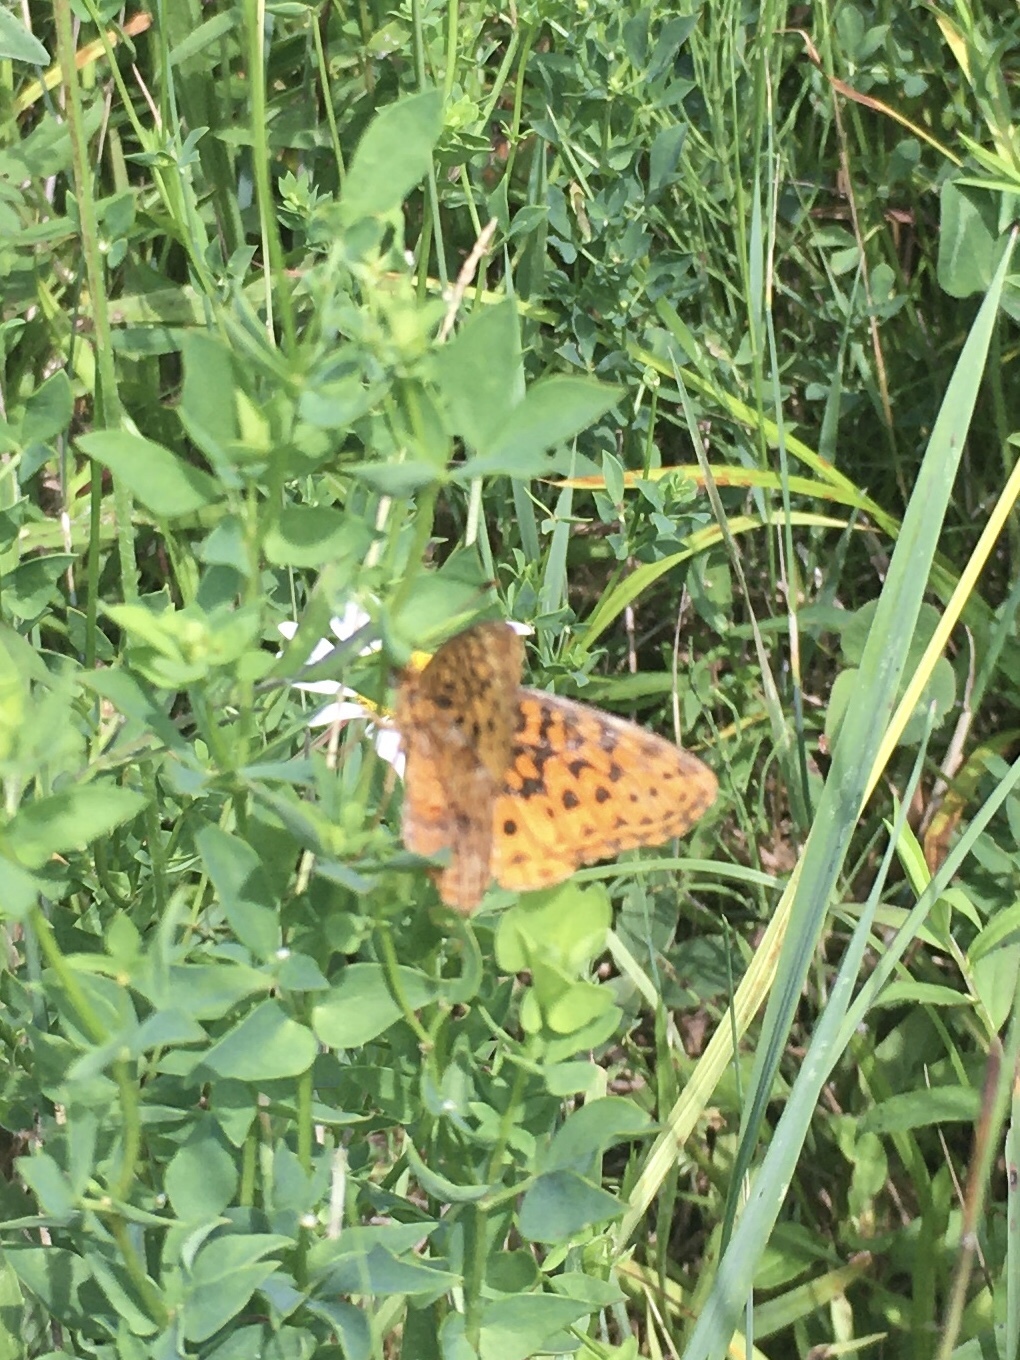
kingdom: Animalia
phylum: Arthropoda
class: Insecta
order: Lepidoptera
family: Nymphalidae
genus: Clossiana
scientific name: Clossiana toddi
